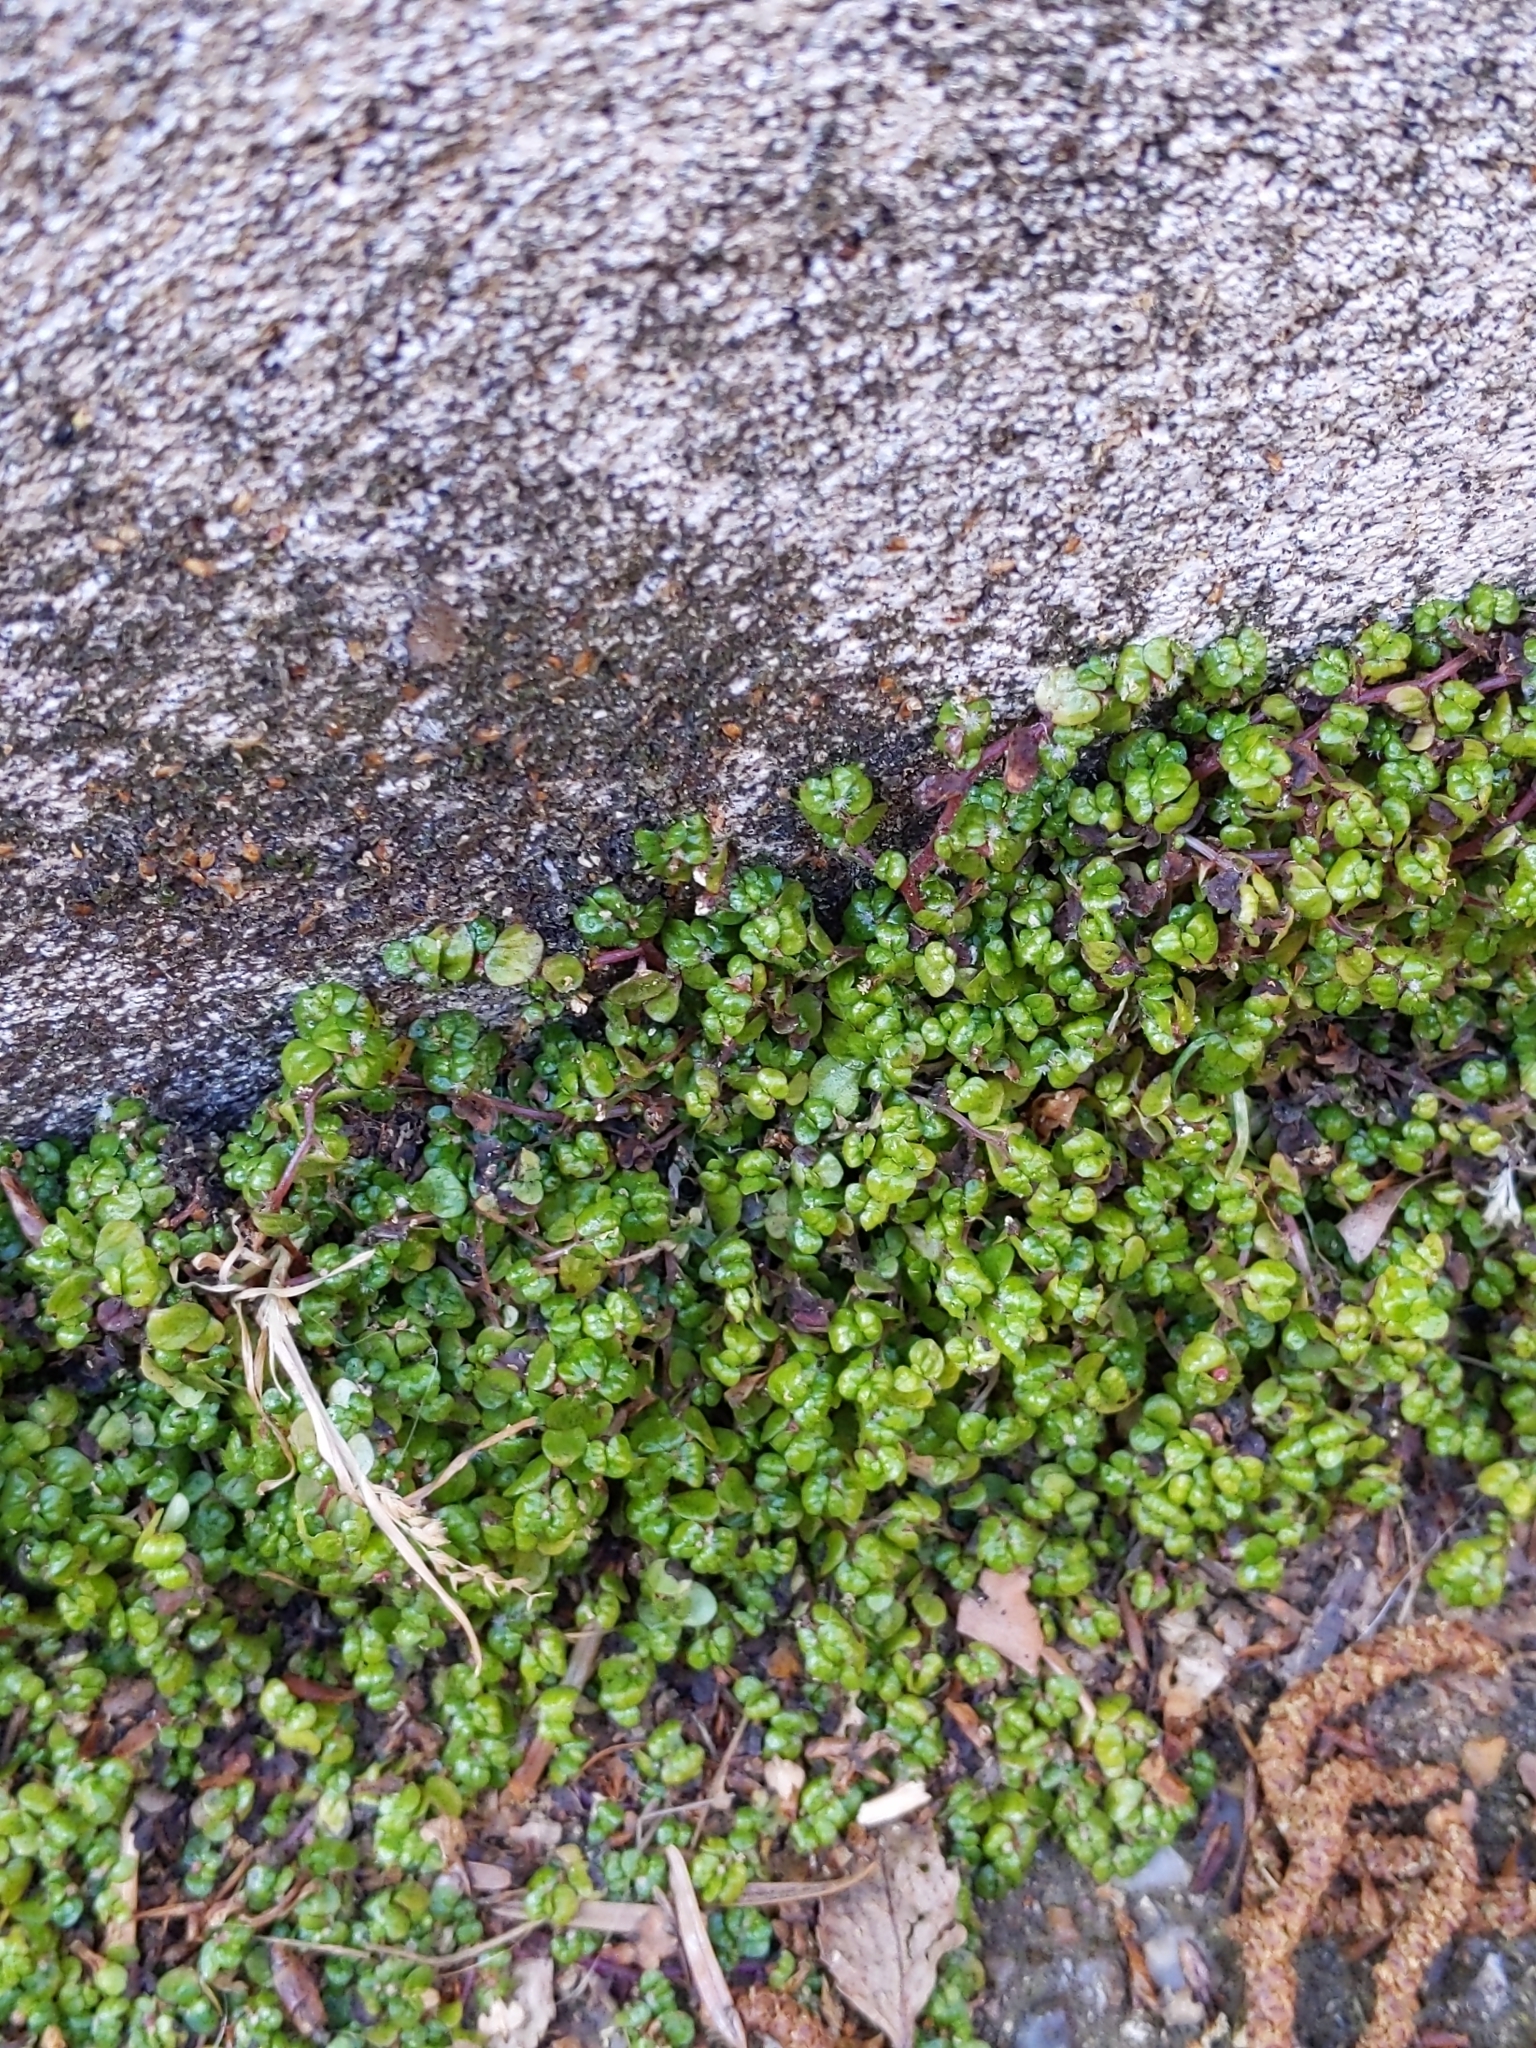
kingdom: Plantae
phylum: Tracheophyta
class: Magnoliopsida
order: Rosales
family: Urticaceae
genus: Soleirolia
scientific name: Soleirolia soleirolii
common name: Mind-your-own-business
